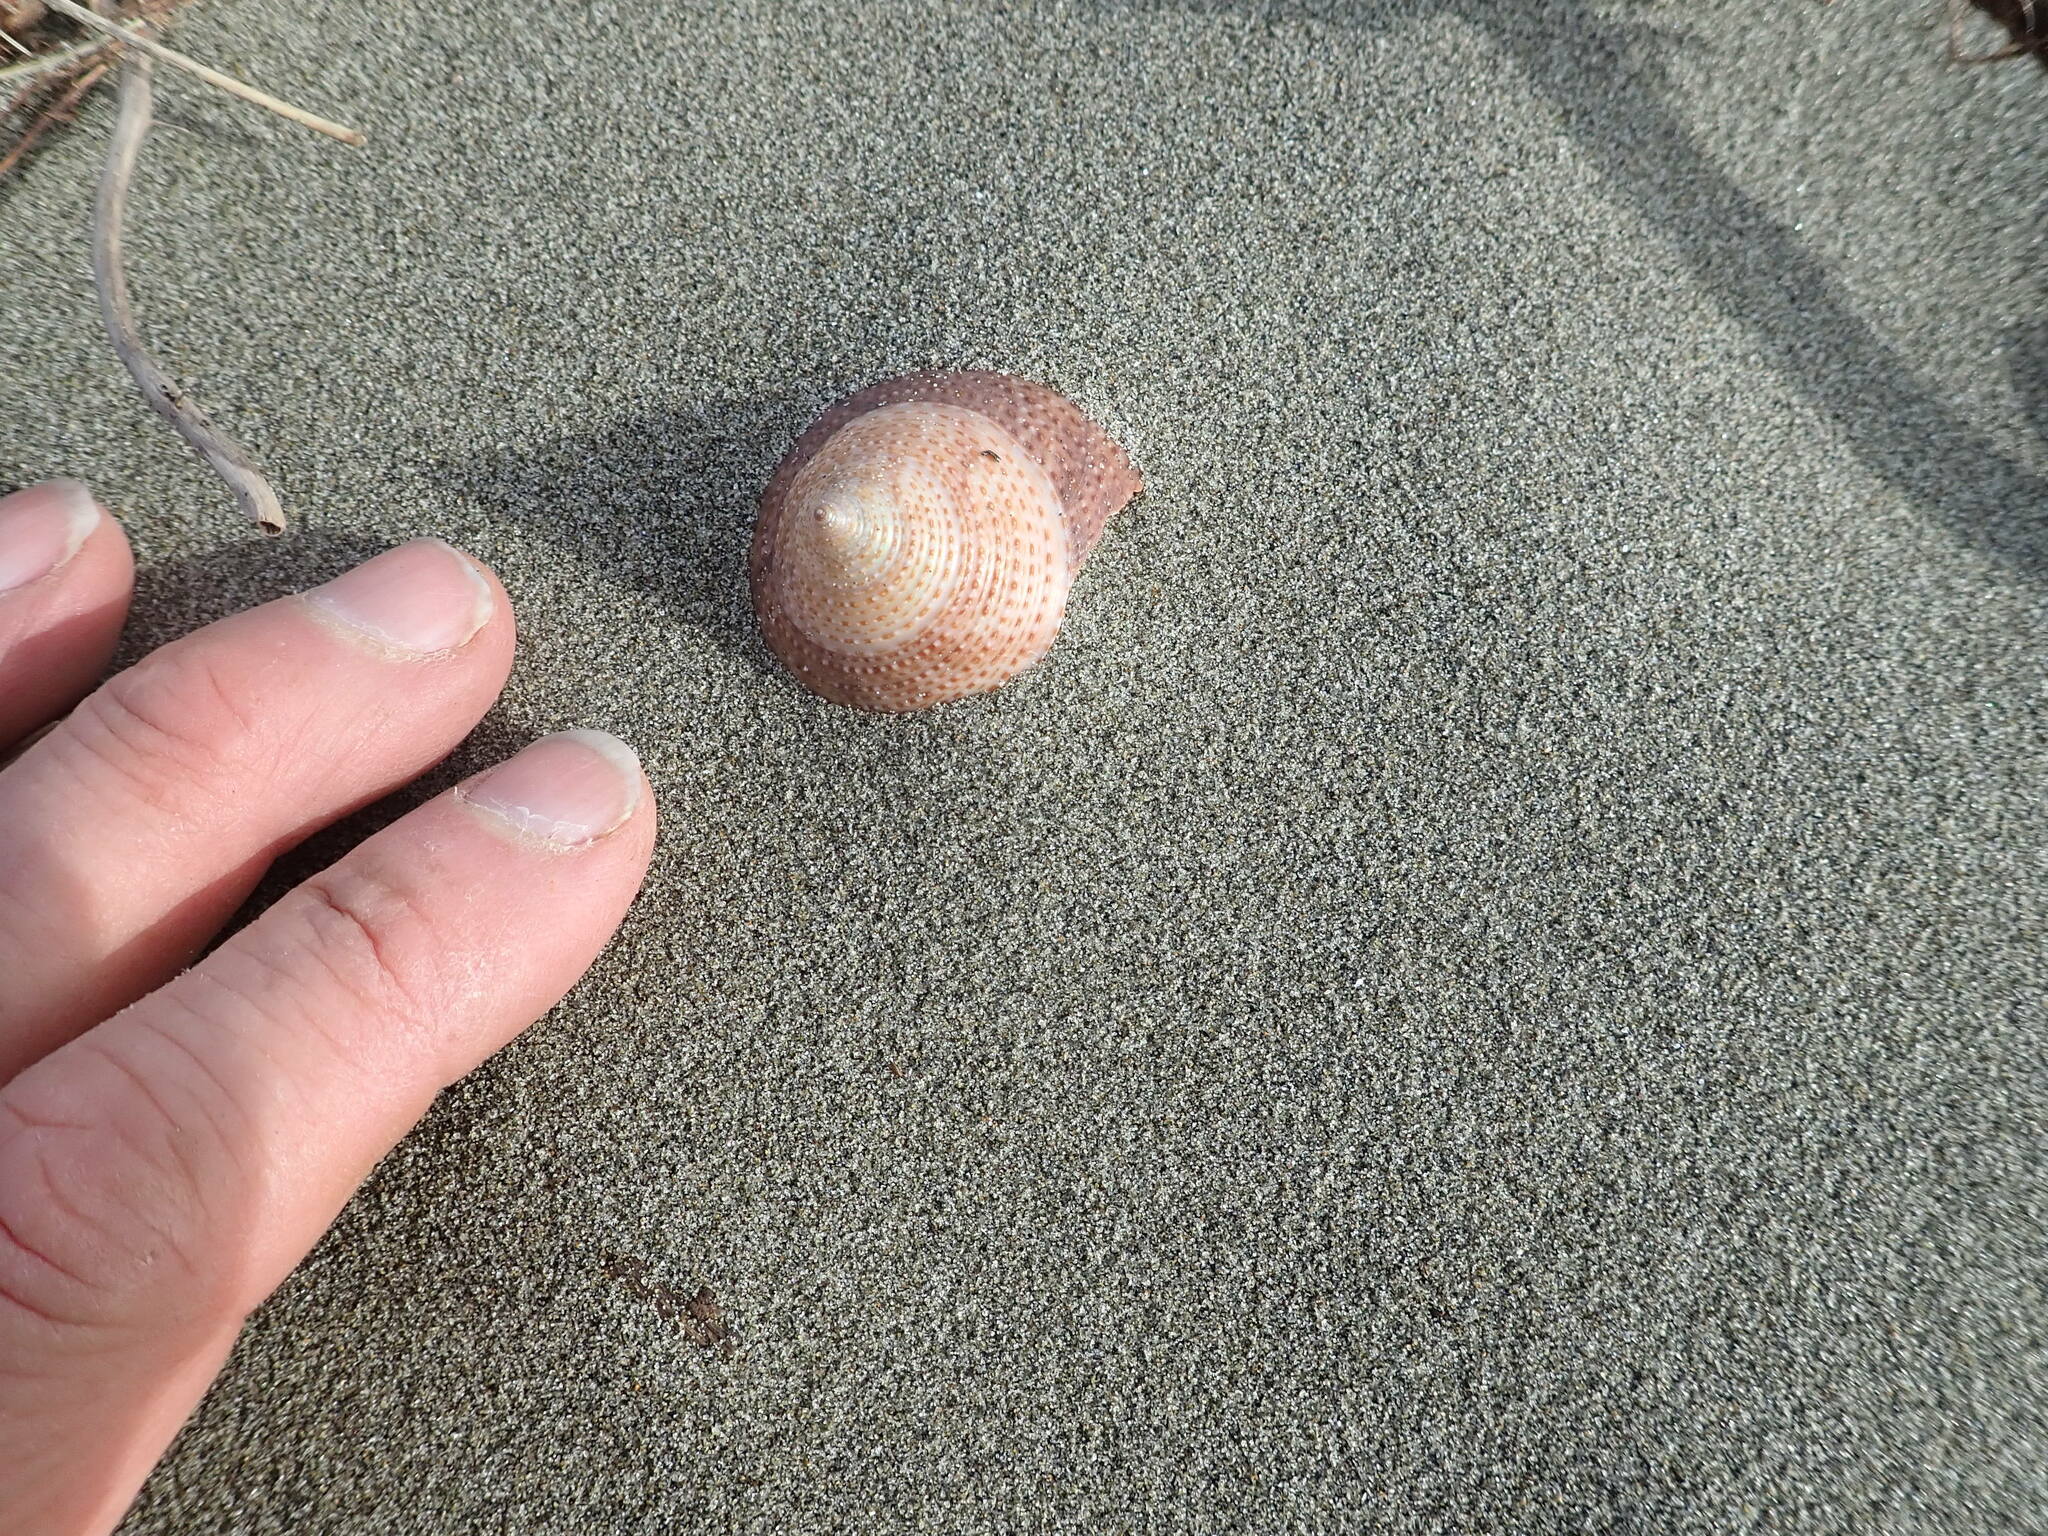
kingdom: Animalia
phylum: Mollusca
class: Gastropoda
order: Trochida
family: Calliostomatidae
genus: Maurea
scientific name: Maurea selecta
